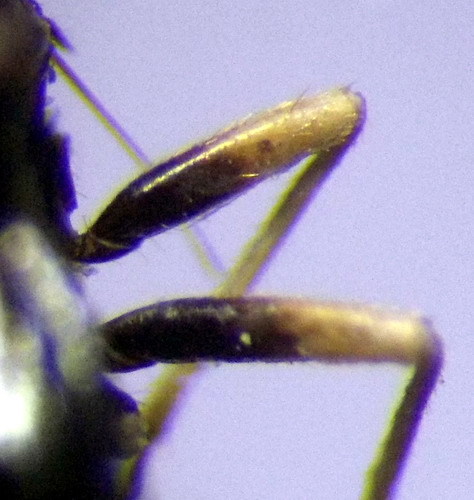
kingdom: Animalia
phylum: Arthropoda
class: Insecta
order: Hemiptera
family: Miridae
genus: Halticus
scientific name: Halticus apterus
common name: Fleahopper
